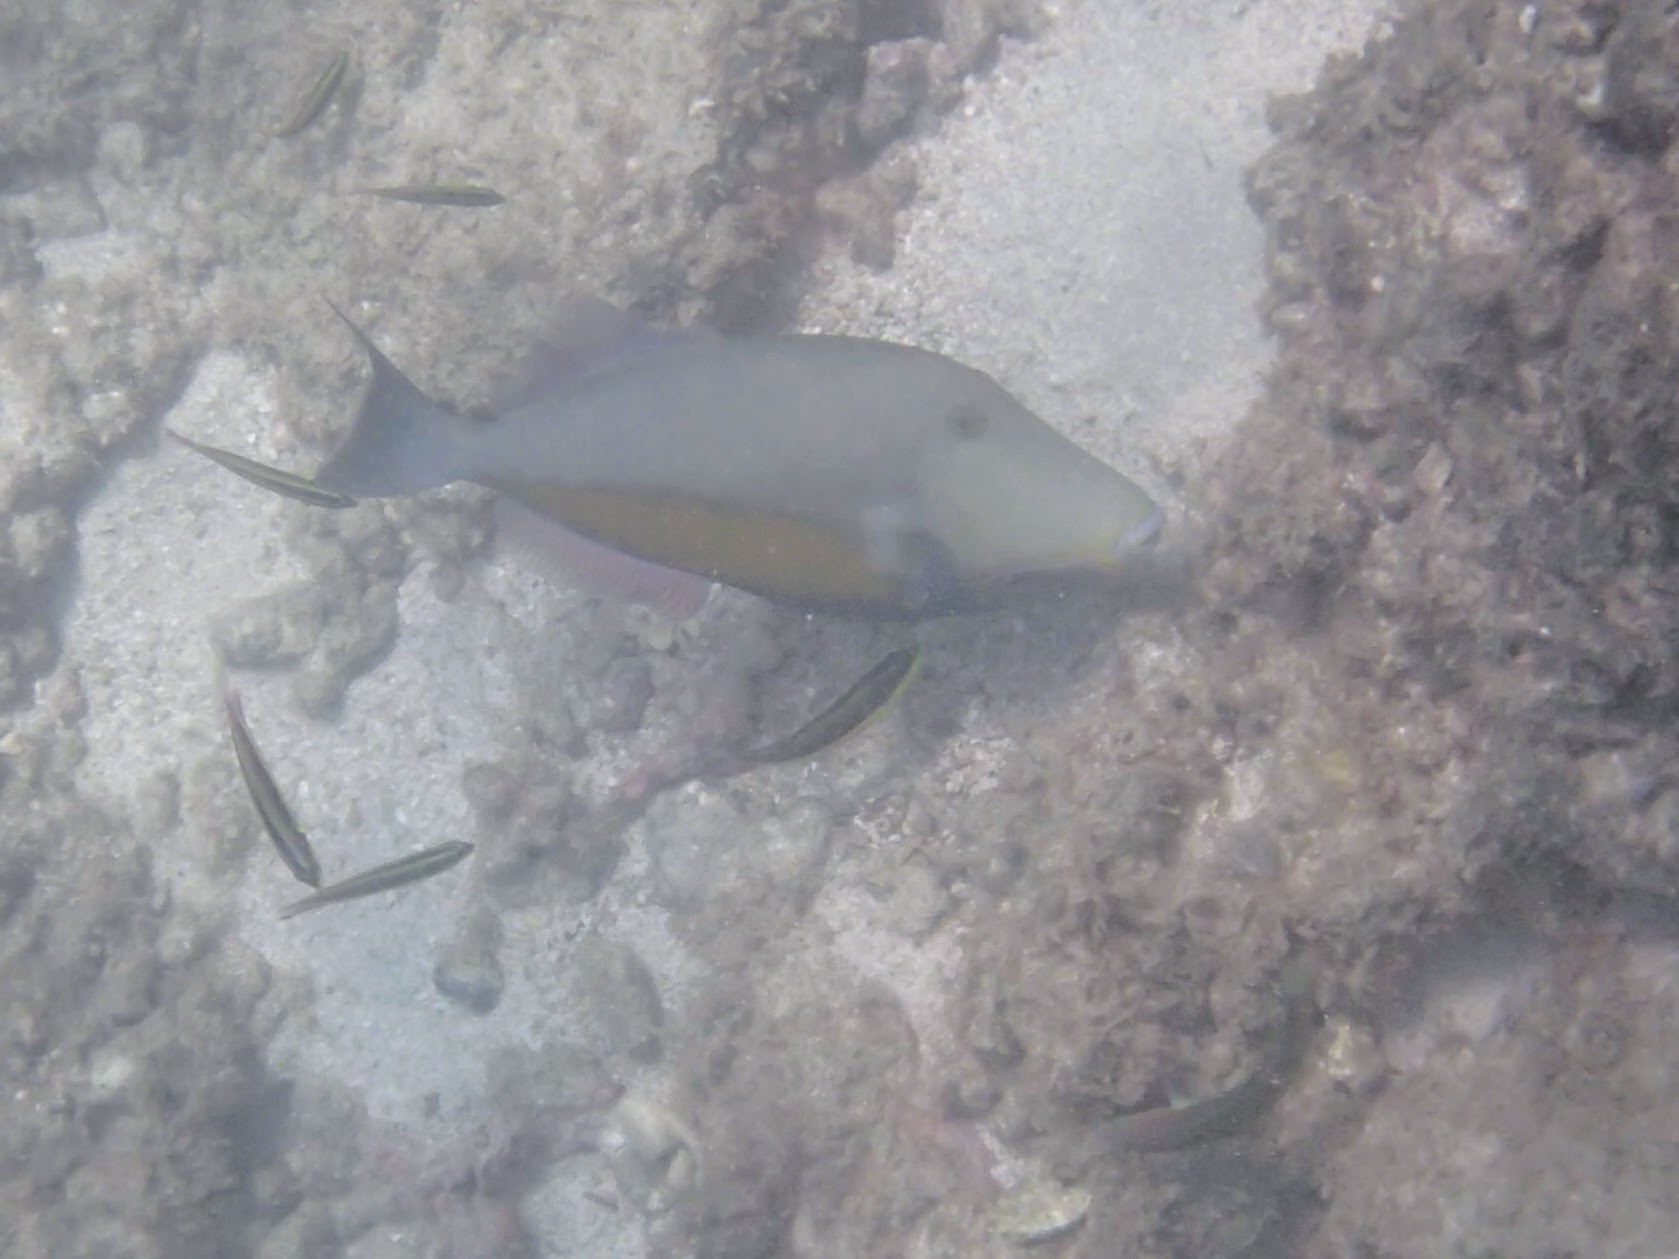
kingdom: Animalia
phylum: Chordata
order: Tetraodontiformes
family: Balistidae
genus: Sufflamen
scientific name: Sufflamen verres
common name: Orangeside triggerfish
